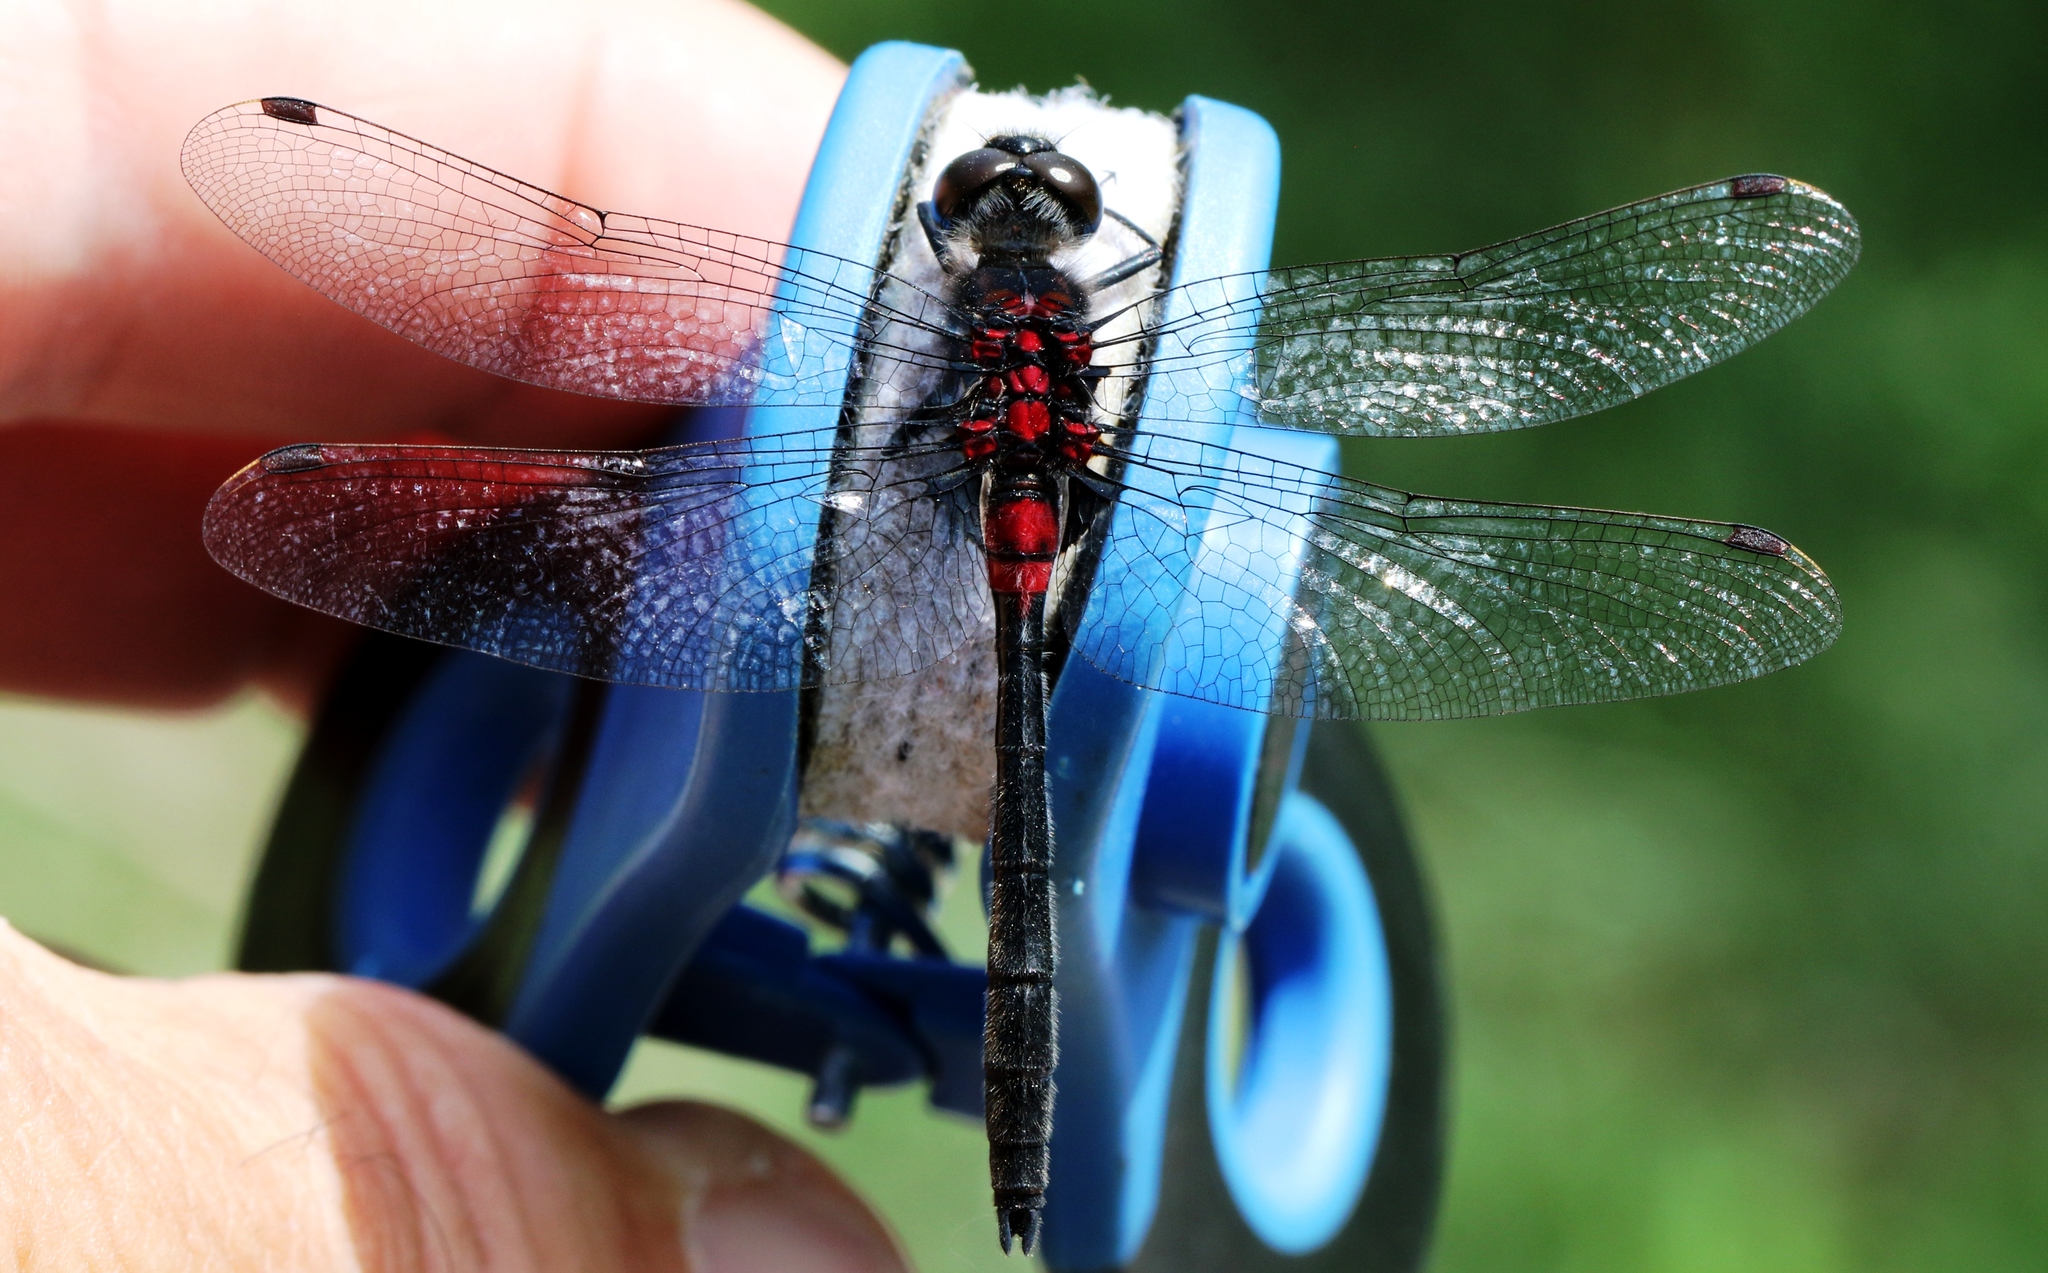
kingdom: Animalia
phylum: Arthropoda
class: Insecta
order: Odonata
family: Libellulidae
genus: Leucorrhinia
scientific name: Leucorrhinia glacialis
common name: Crimson-ringed whiteface
